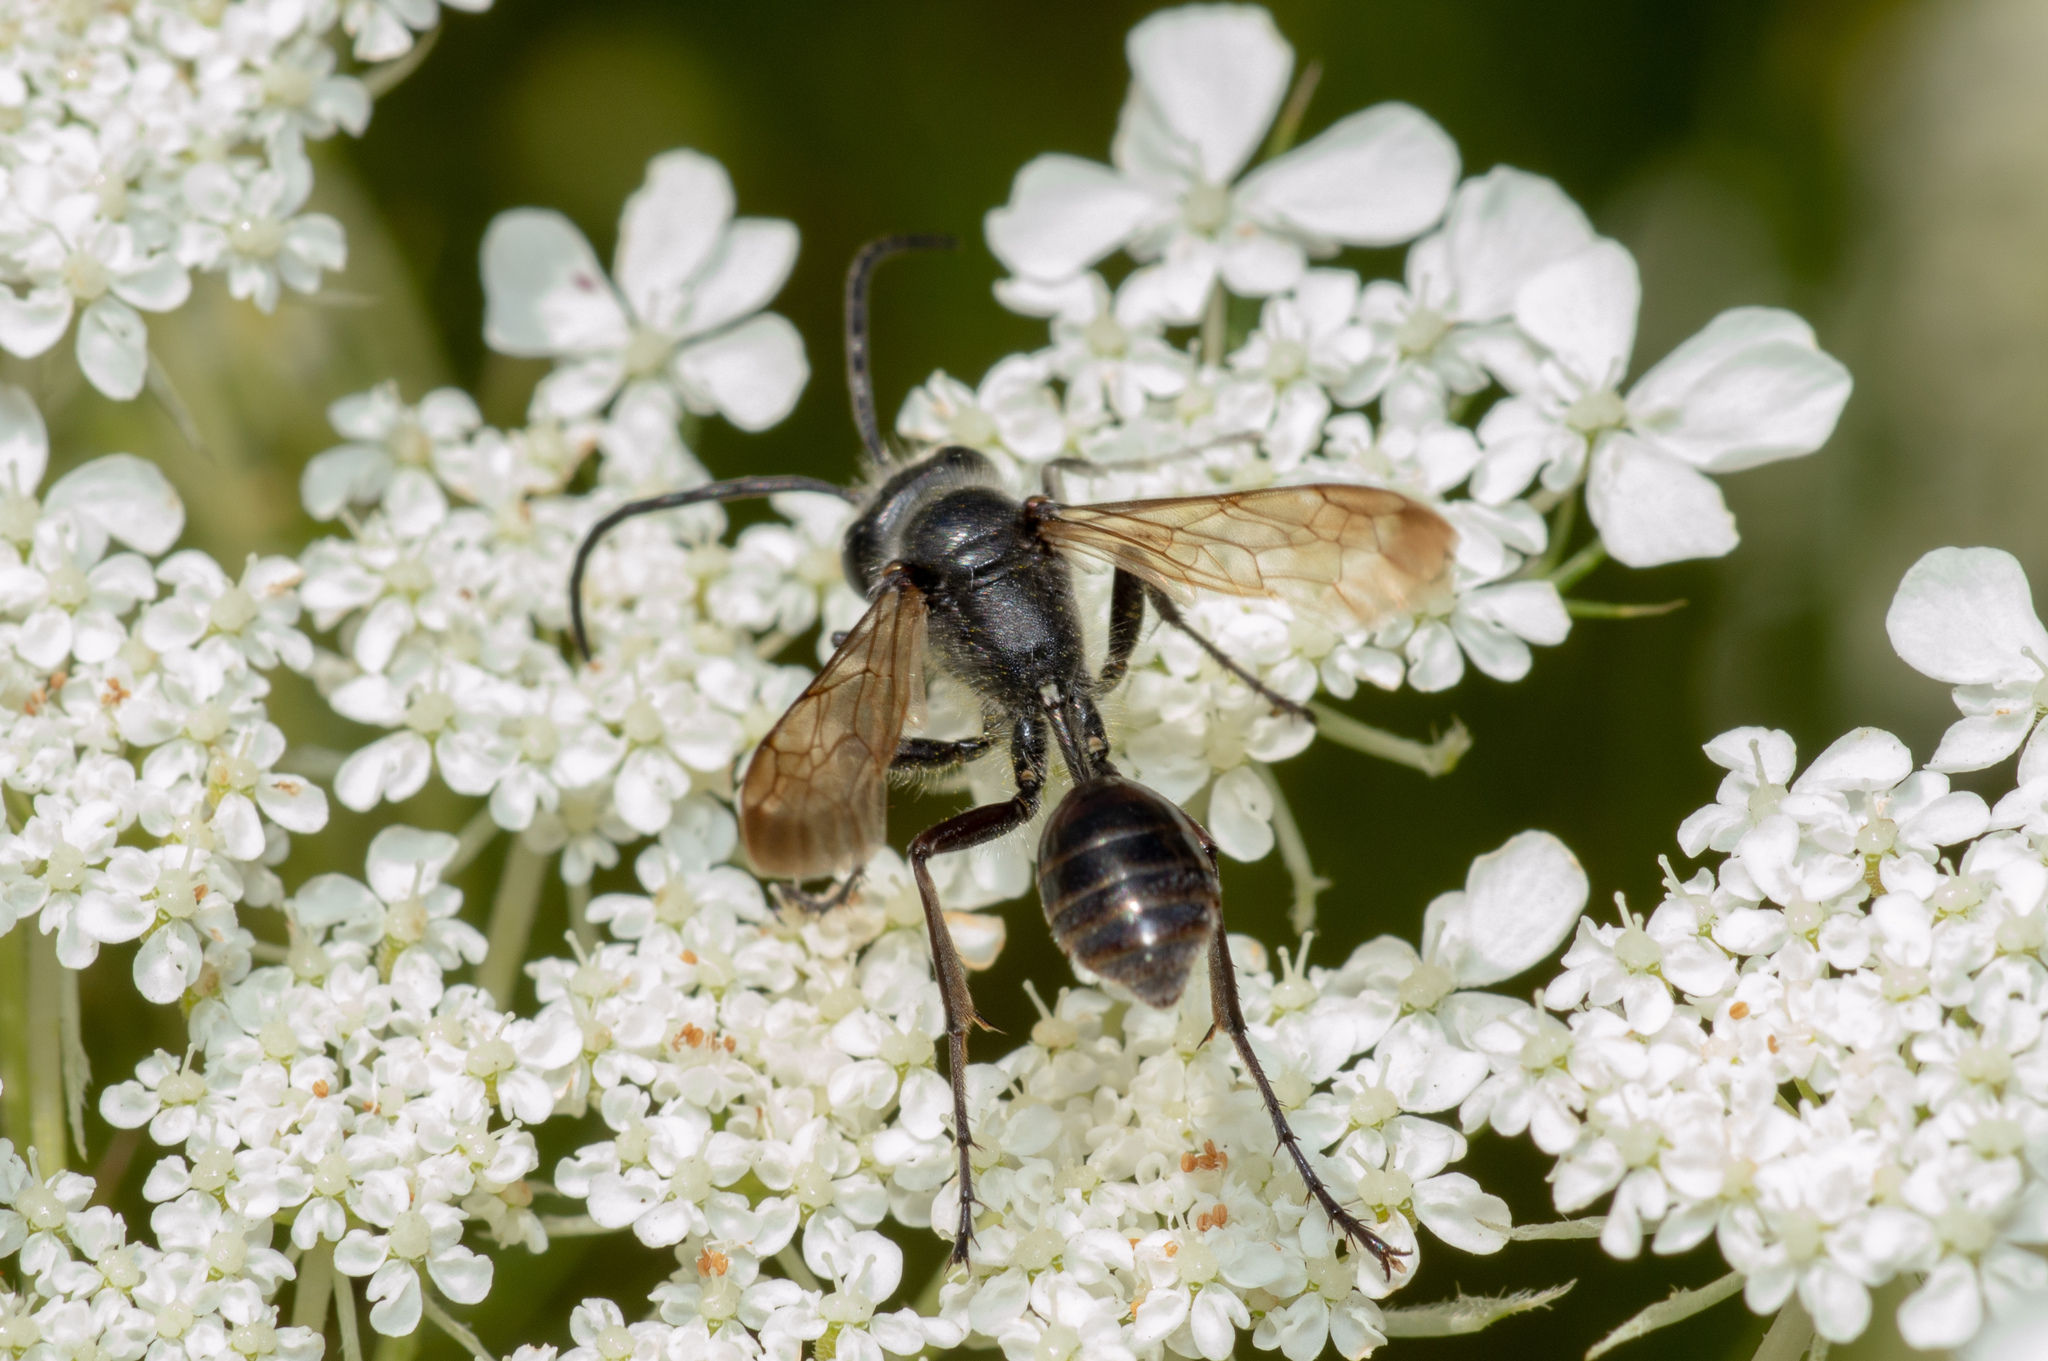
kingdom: Animalia
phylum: Arthropoda
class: Insecta
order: Hymenoptera
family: Sphecidae
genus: Isodontia
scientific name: Isodontia mexicana
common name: Mud dauber
